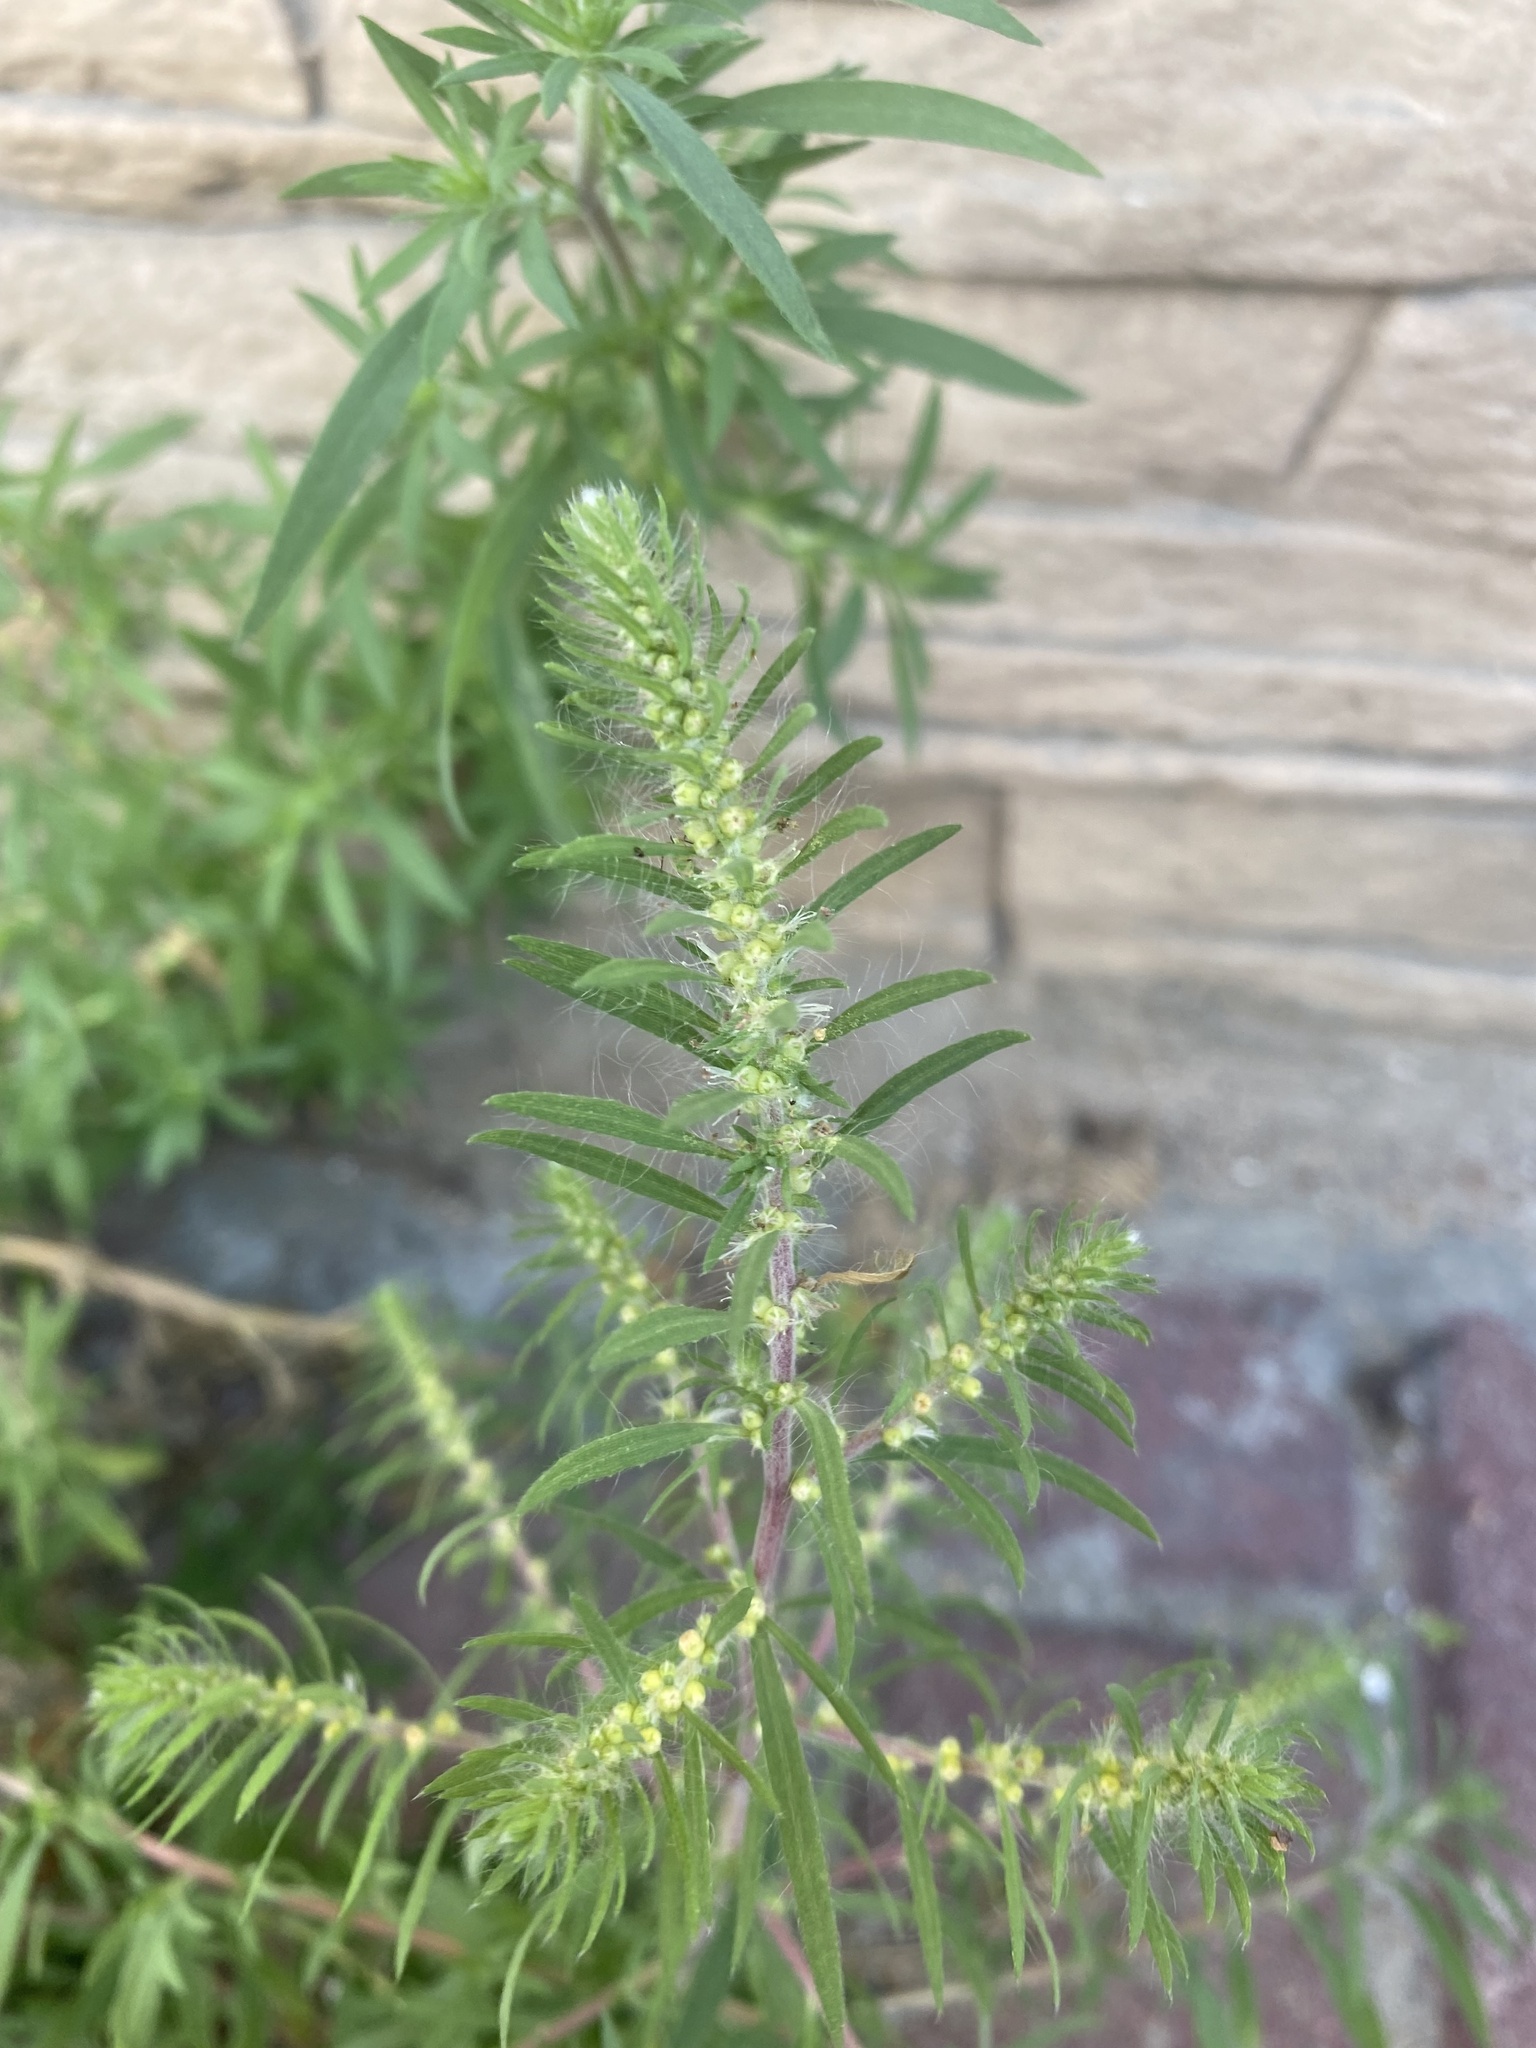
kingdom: Plantae
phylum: Tracheophyta
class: Magnoliopsida
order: Caryophyllales
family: Amaranthaceae
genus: Bassia
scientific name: Bassia scoparia
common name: Belvedere
